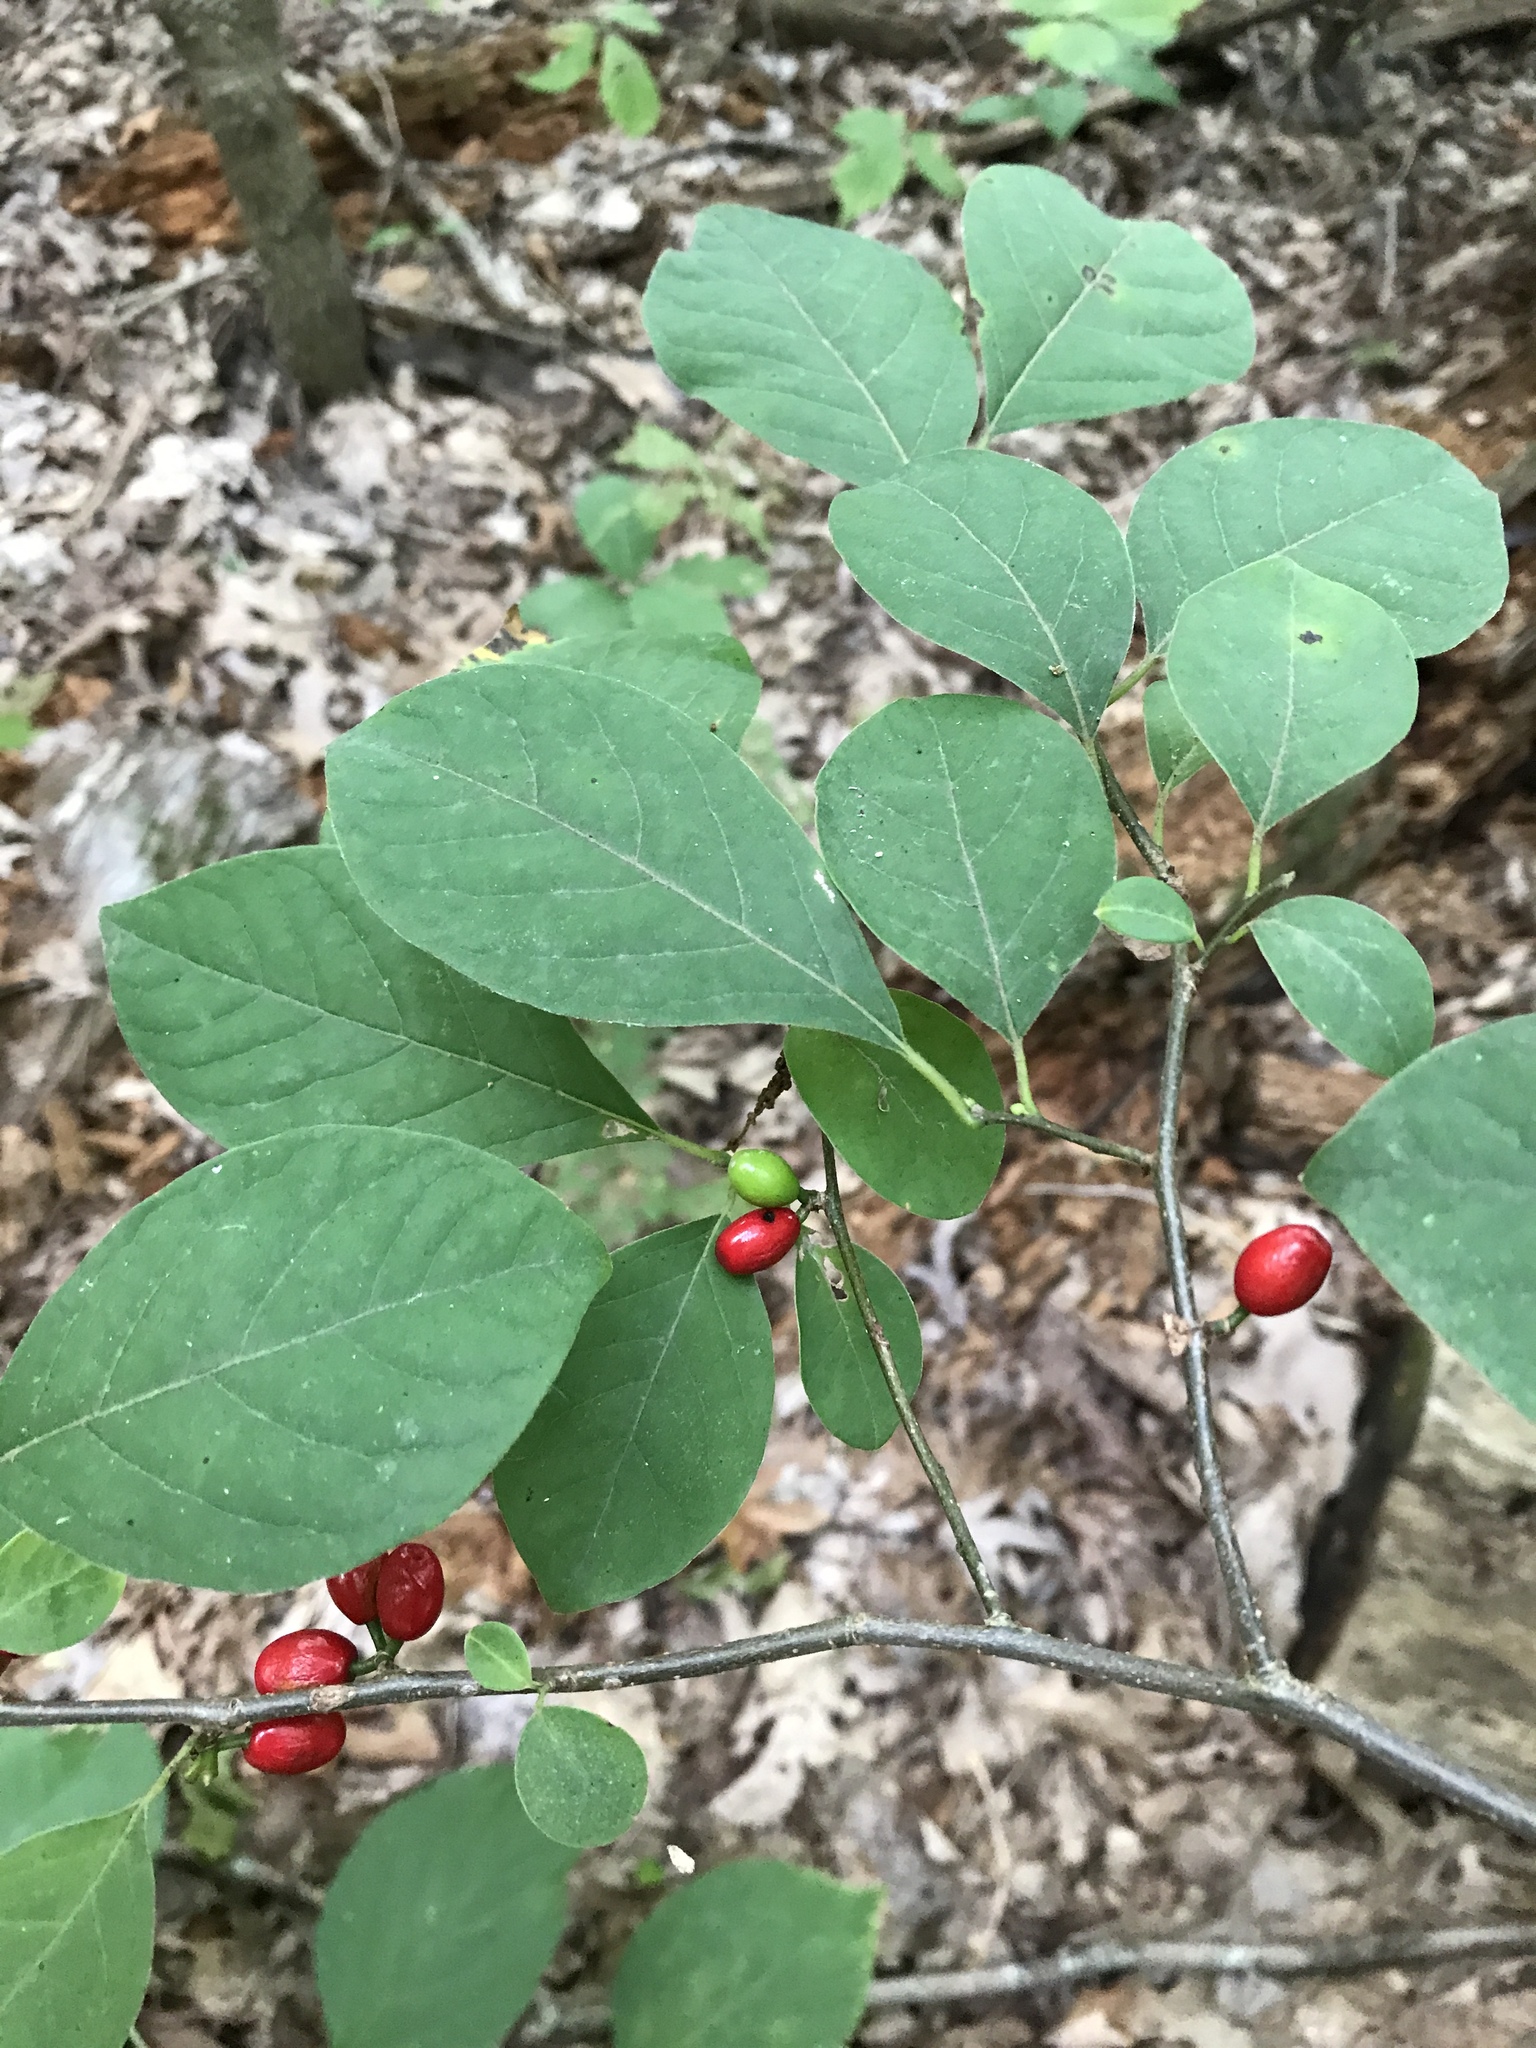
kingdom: Plantae
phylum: Tracheophyta
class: Magnoliopsida
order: Laurales
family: Lauraceae
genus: Lindera
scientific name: Lindera benzoin
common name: Spicebush
